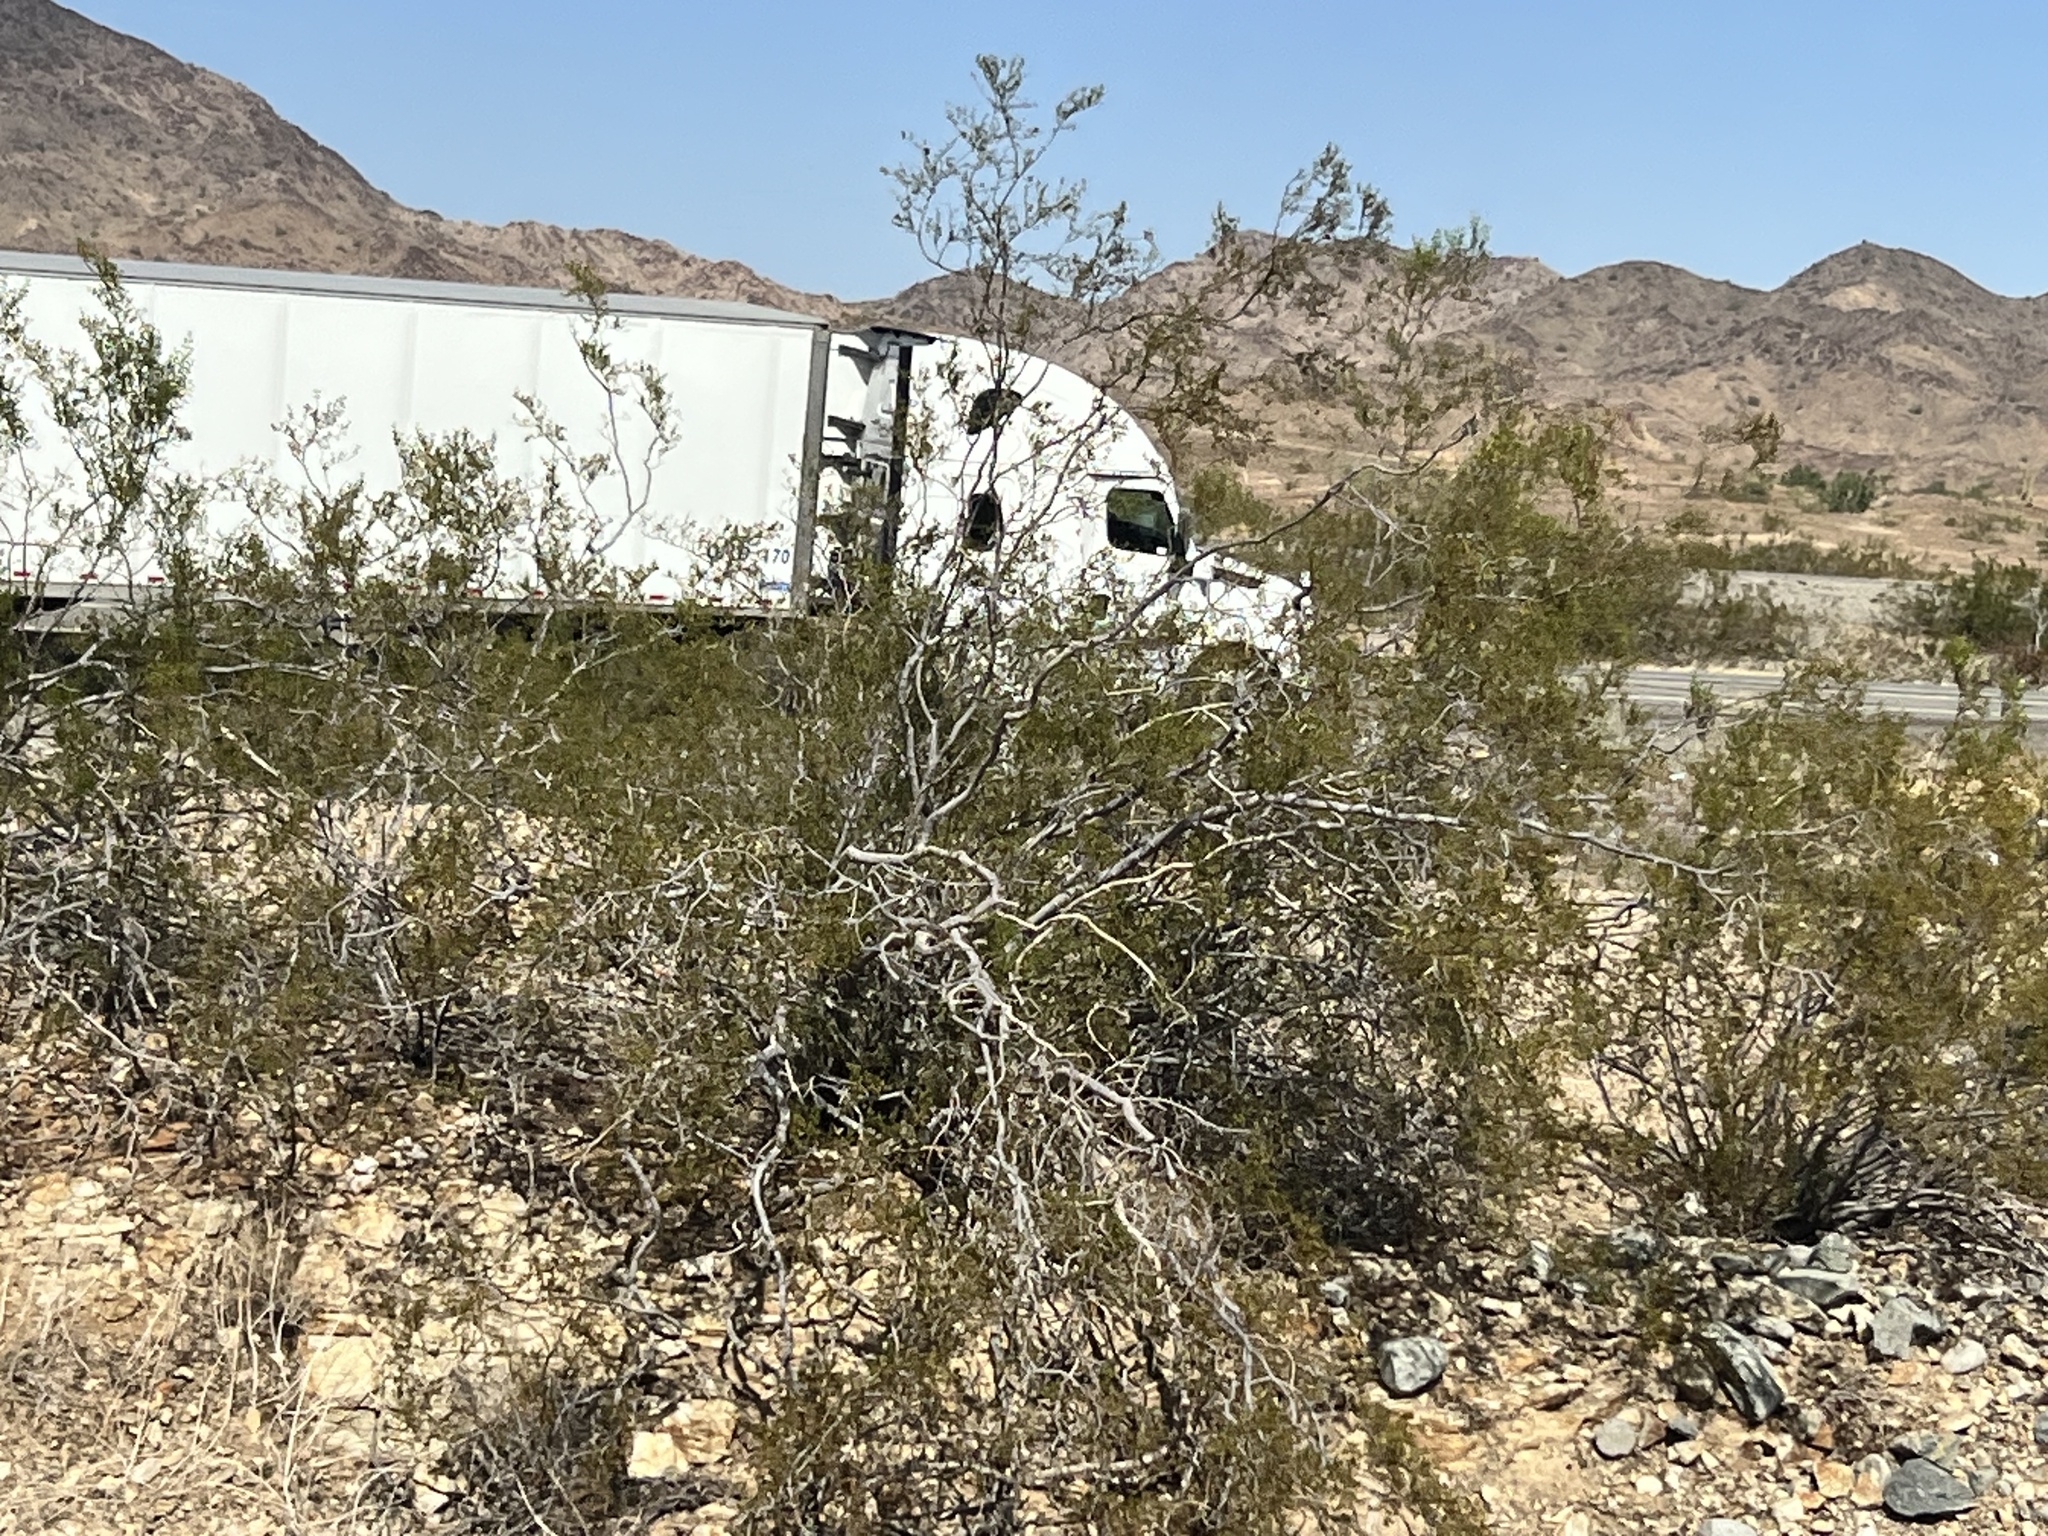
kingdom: Plantae
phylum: Tracheophyta
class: Magnoliopsida
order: Zygophyllales
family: Zygophyllaceae
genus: Larrea
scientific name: Larrea tridentata
